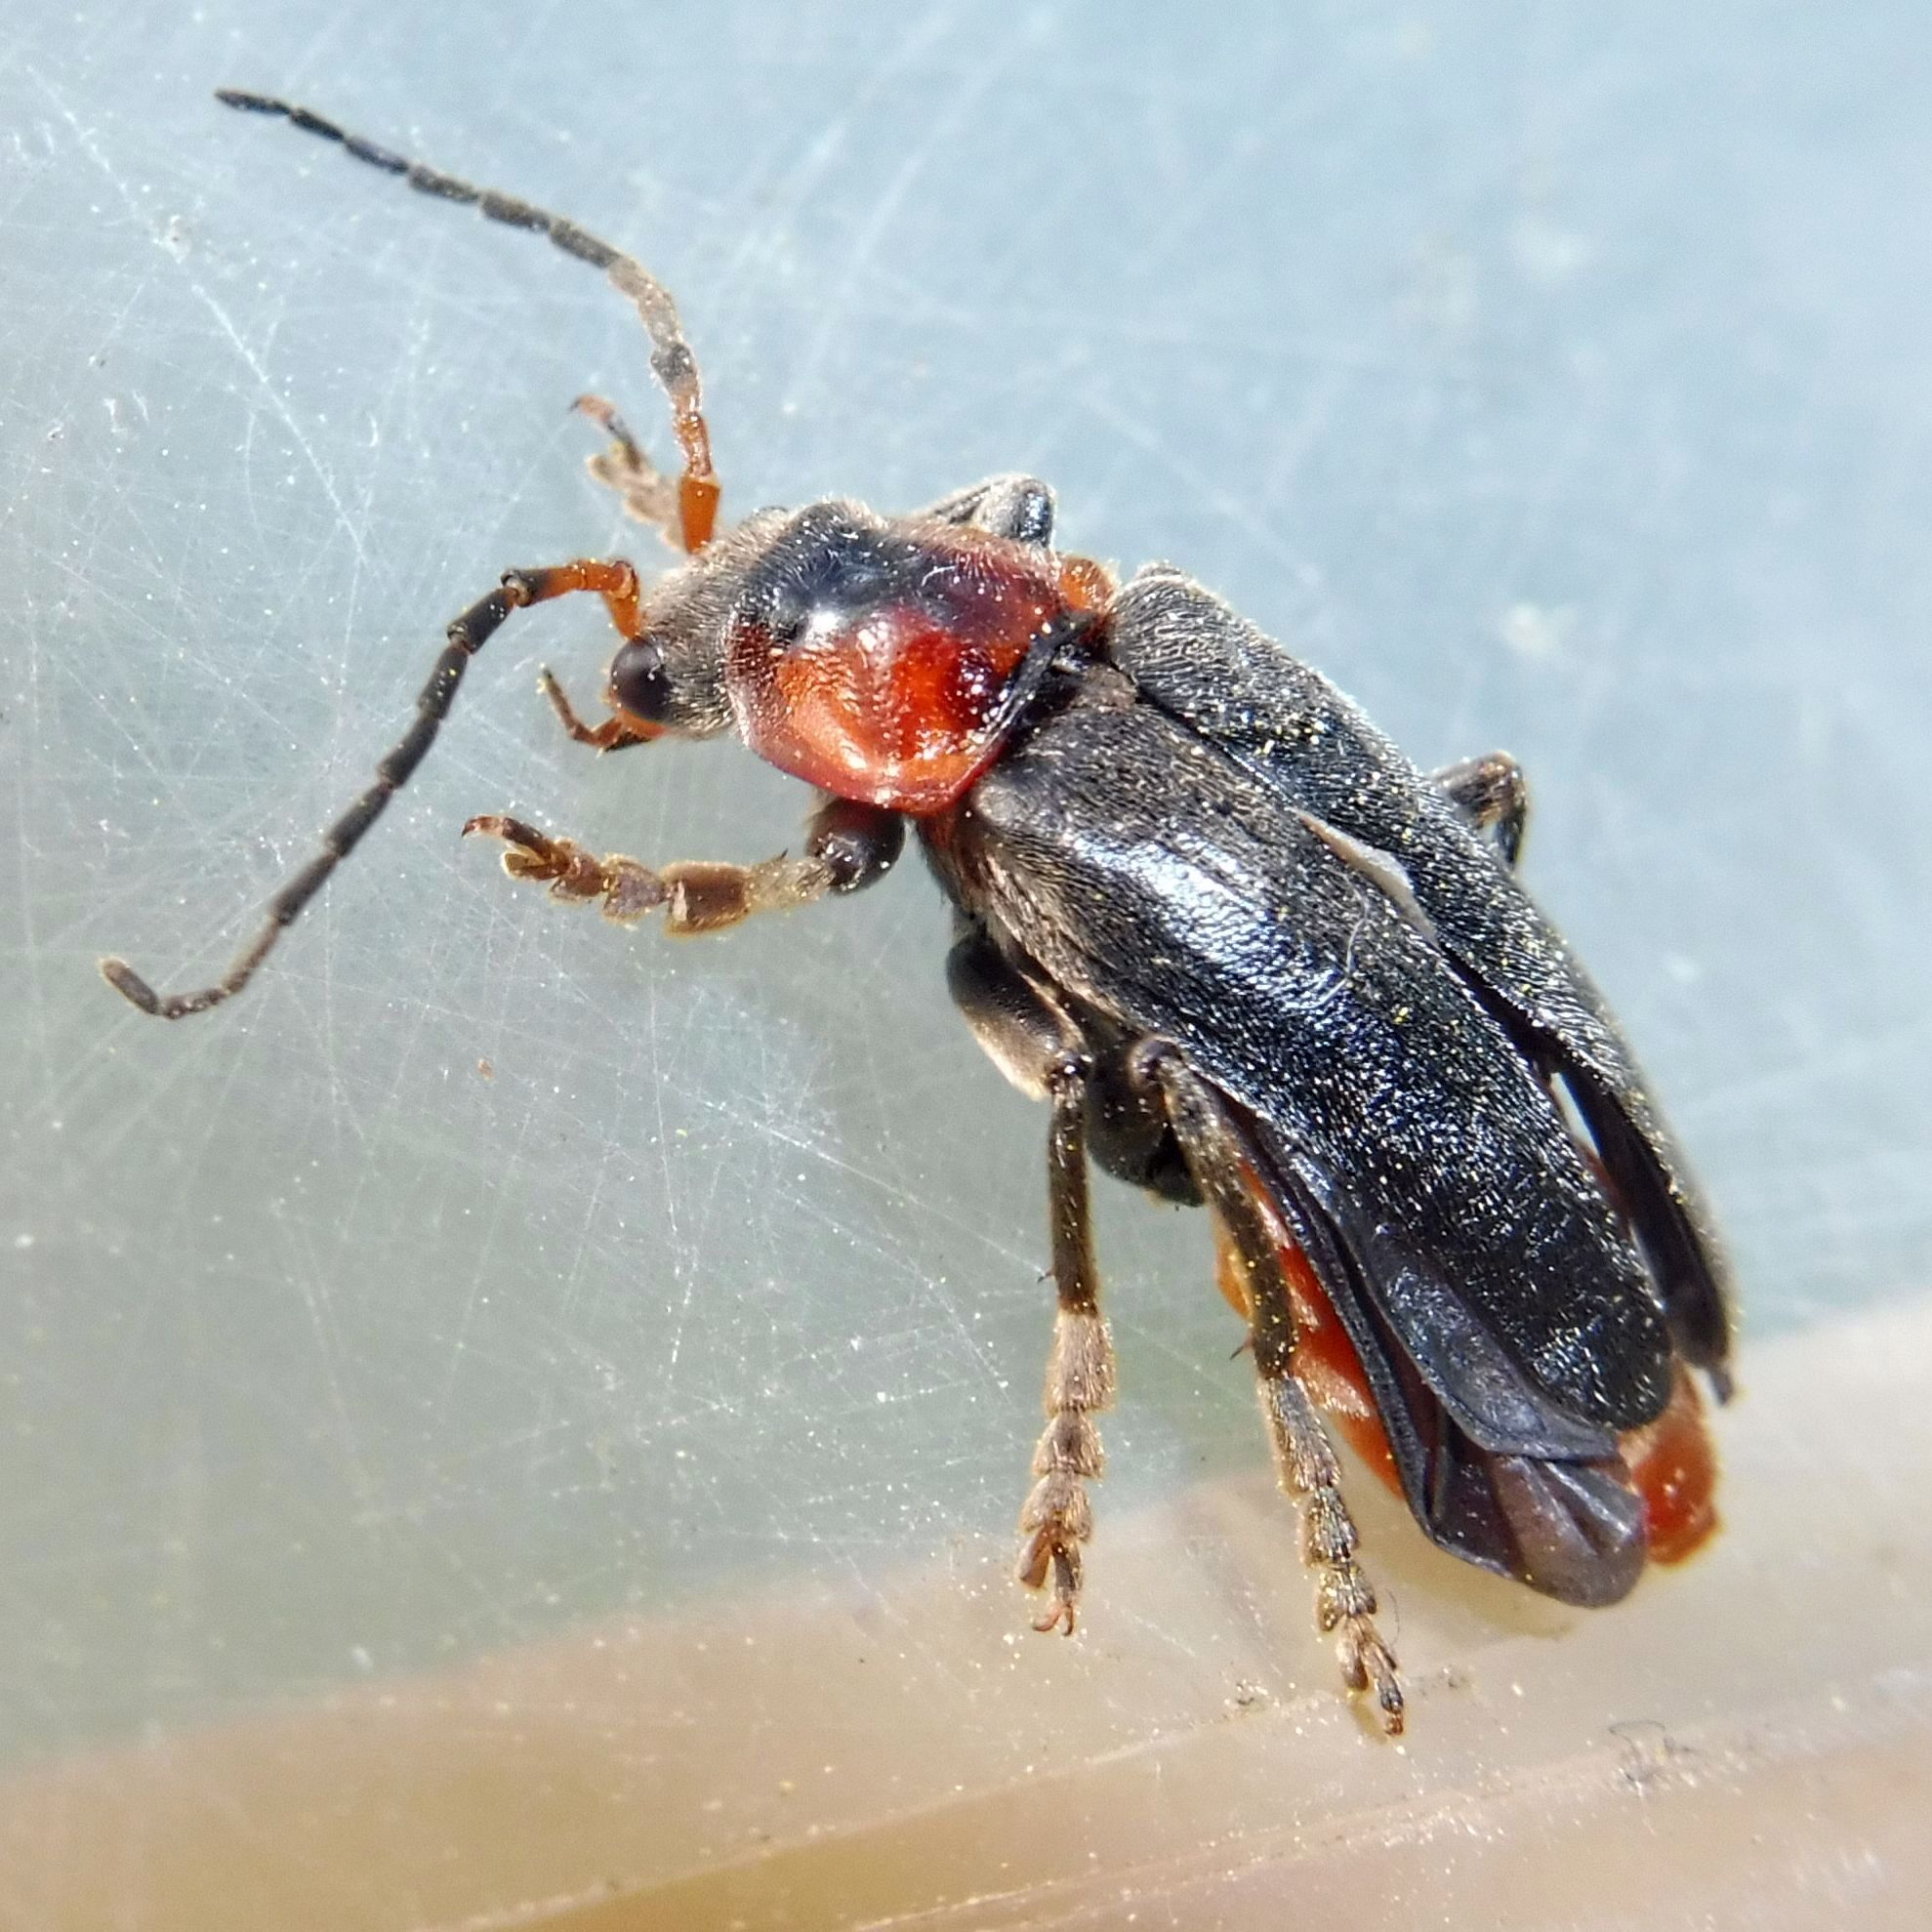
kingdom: Animalia
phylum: Arthropoda
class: Insecta
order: Coleoptera
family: Cantharidae
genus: Cantharis
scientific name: Cantharis fusca
